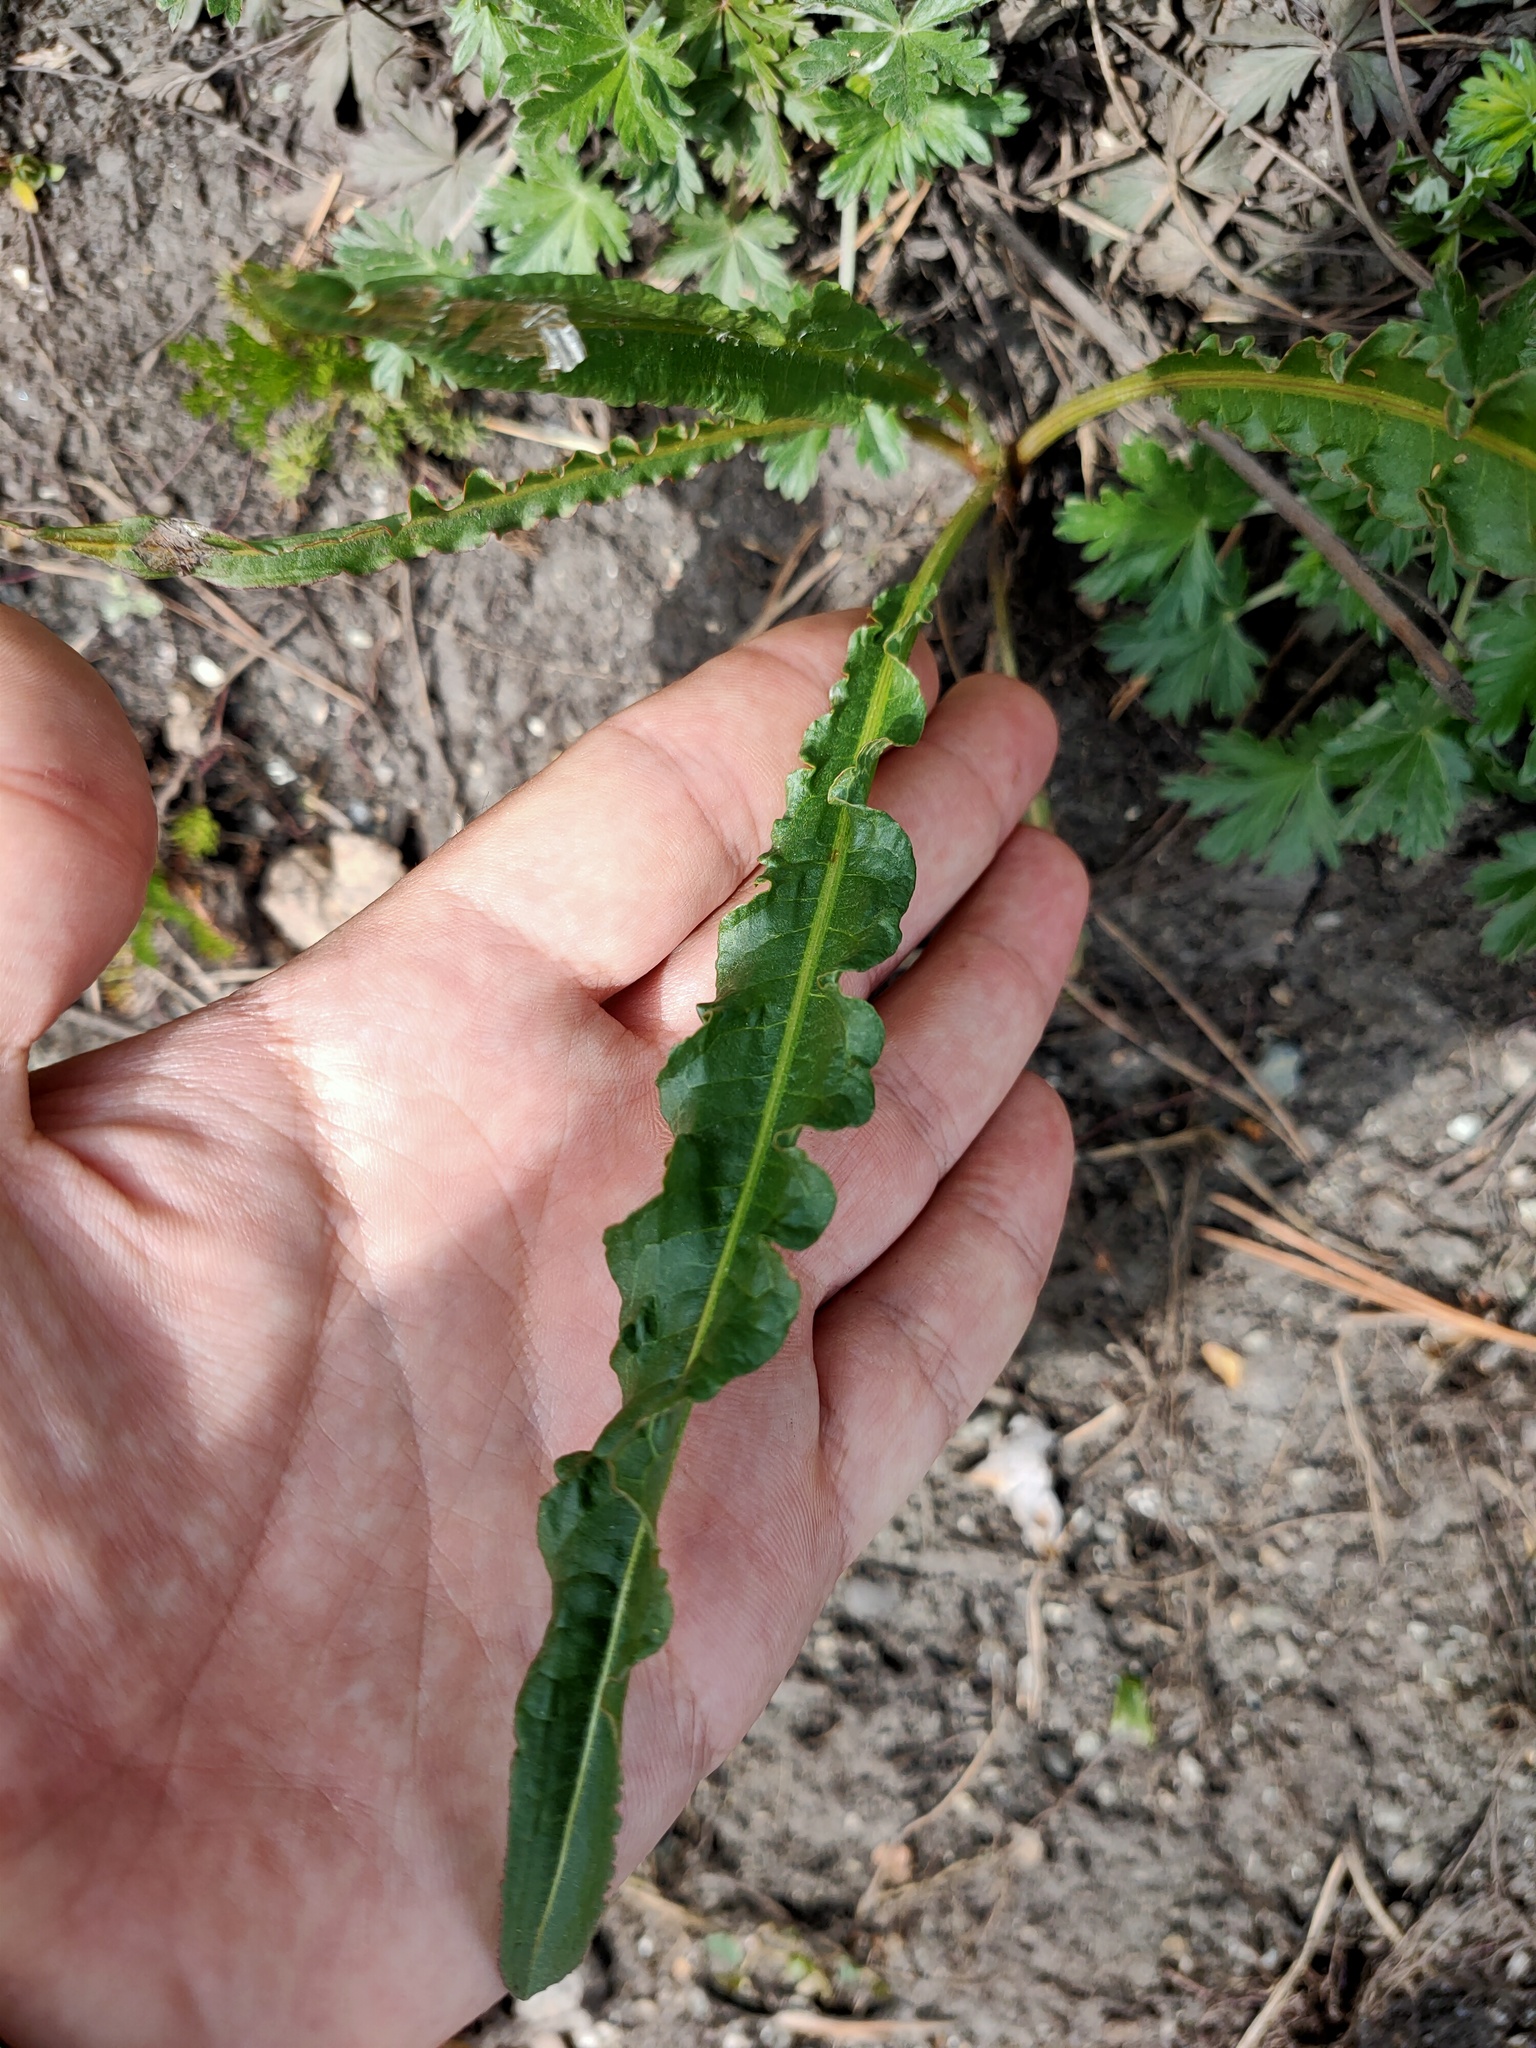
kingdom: Plantae
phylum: Tracheophyta
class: Magnoliopsida
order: Caryophyllales
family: Polygonaceae
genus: Rumex
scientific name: Rumex crispus
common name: Curled dock
